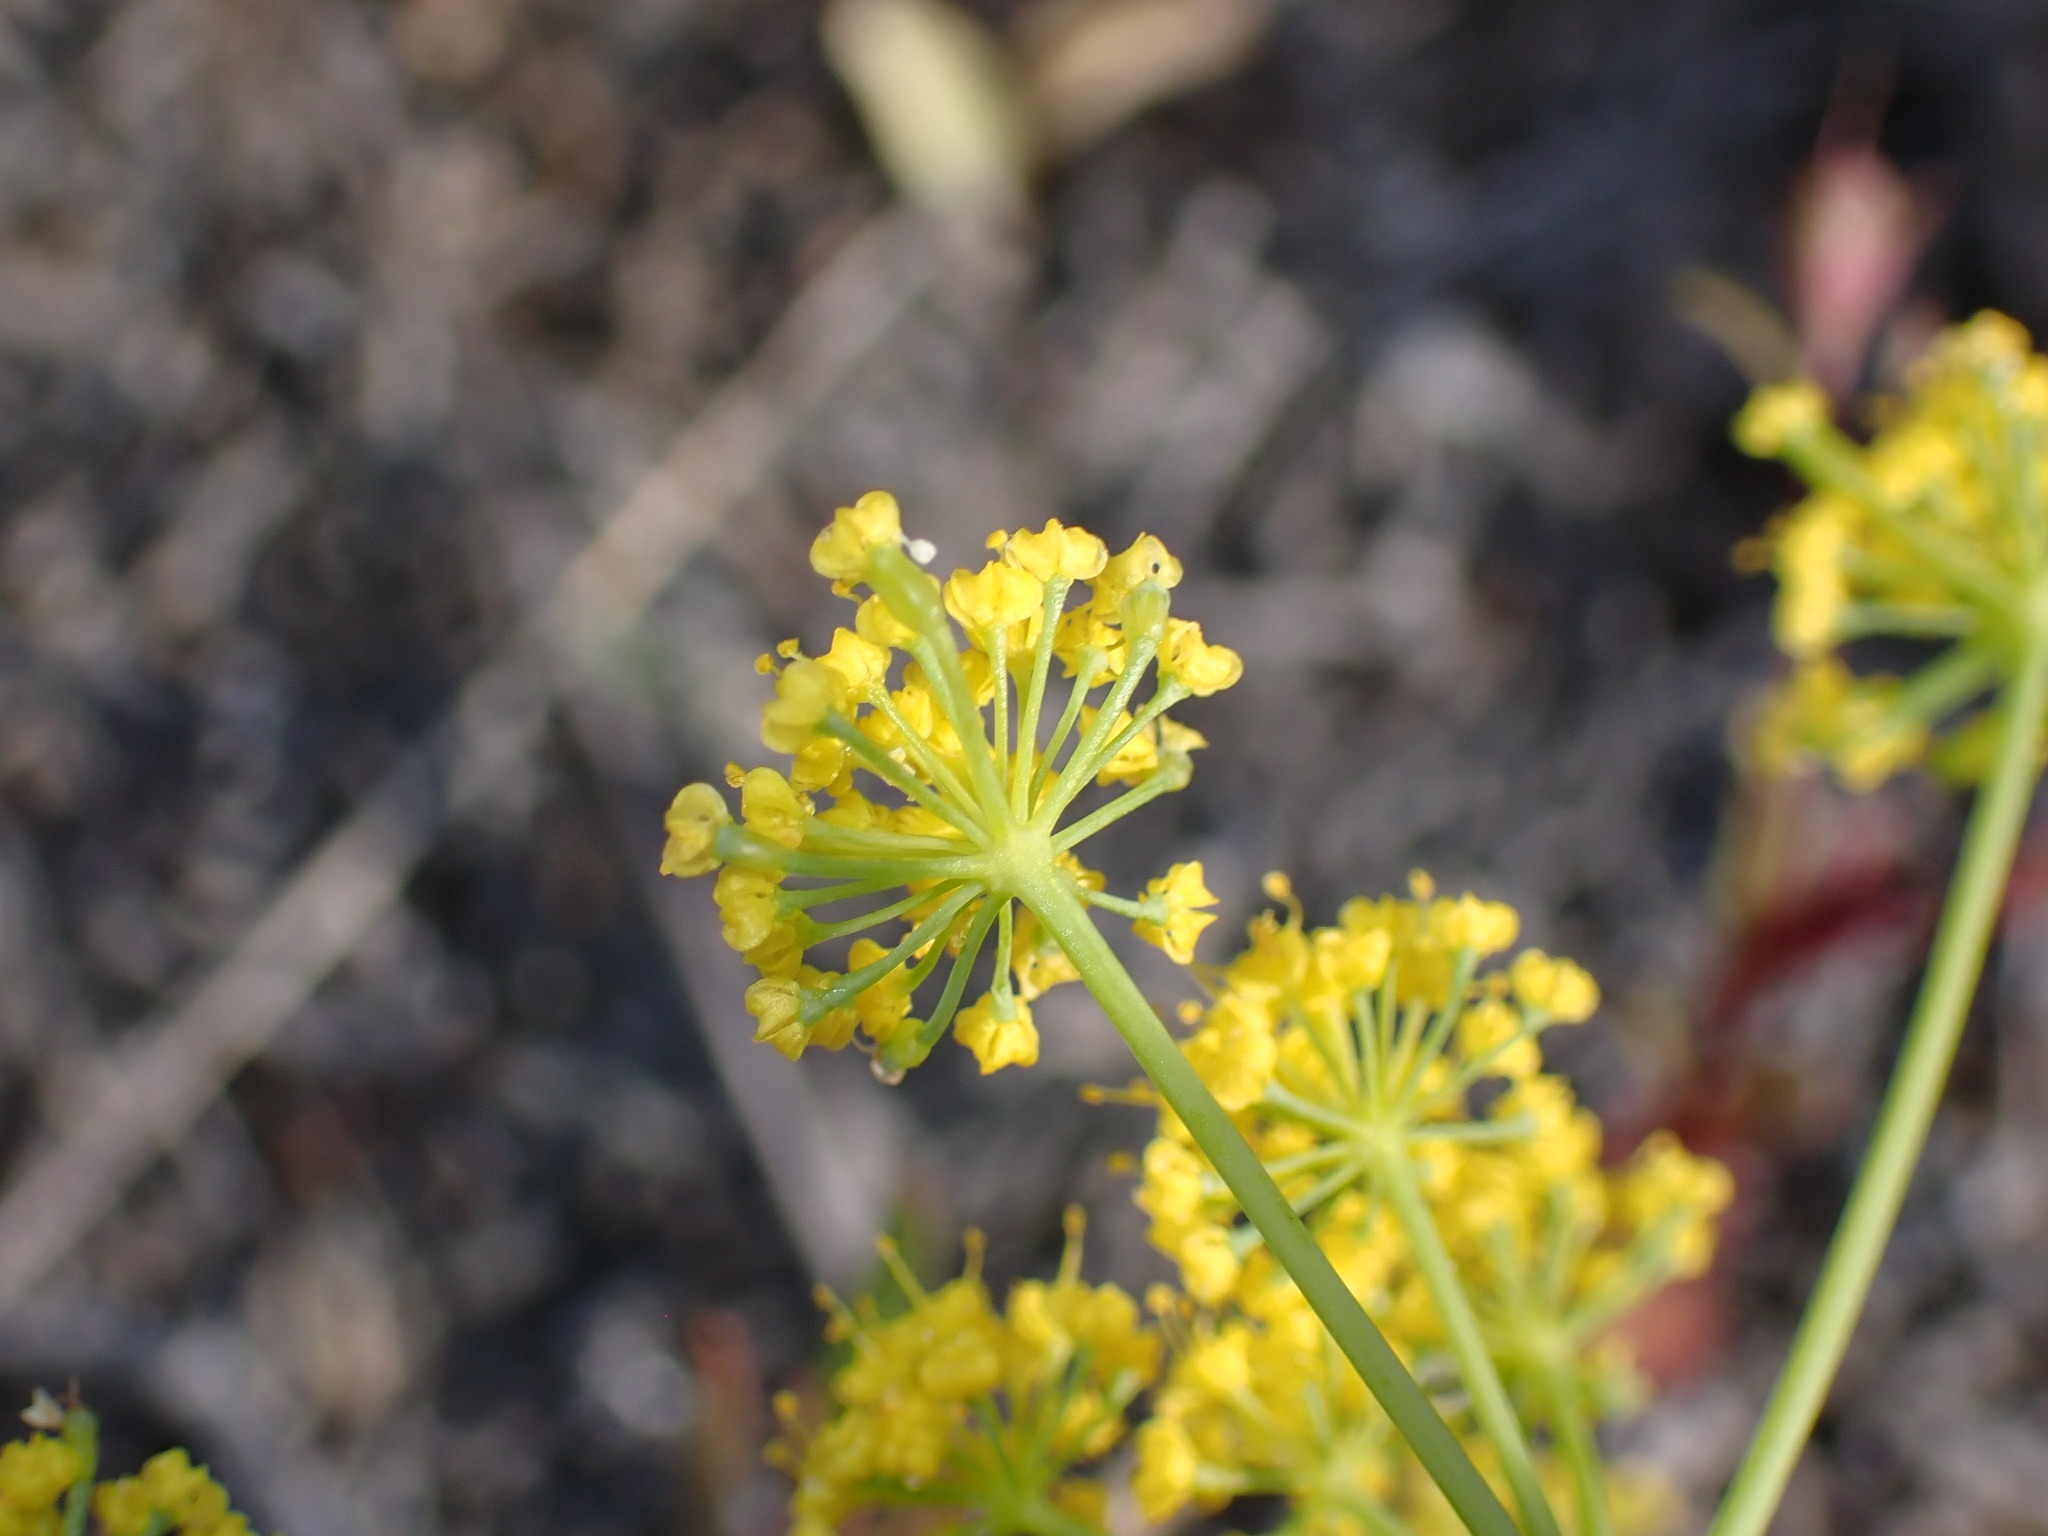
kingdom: Plantae
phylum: Tracheophyta
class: Magnoliopsida
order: Apiales
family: Apiaceae
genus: Lomatium
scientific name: Lomatium ambiguum
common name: Lacy lomatium
